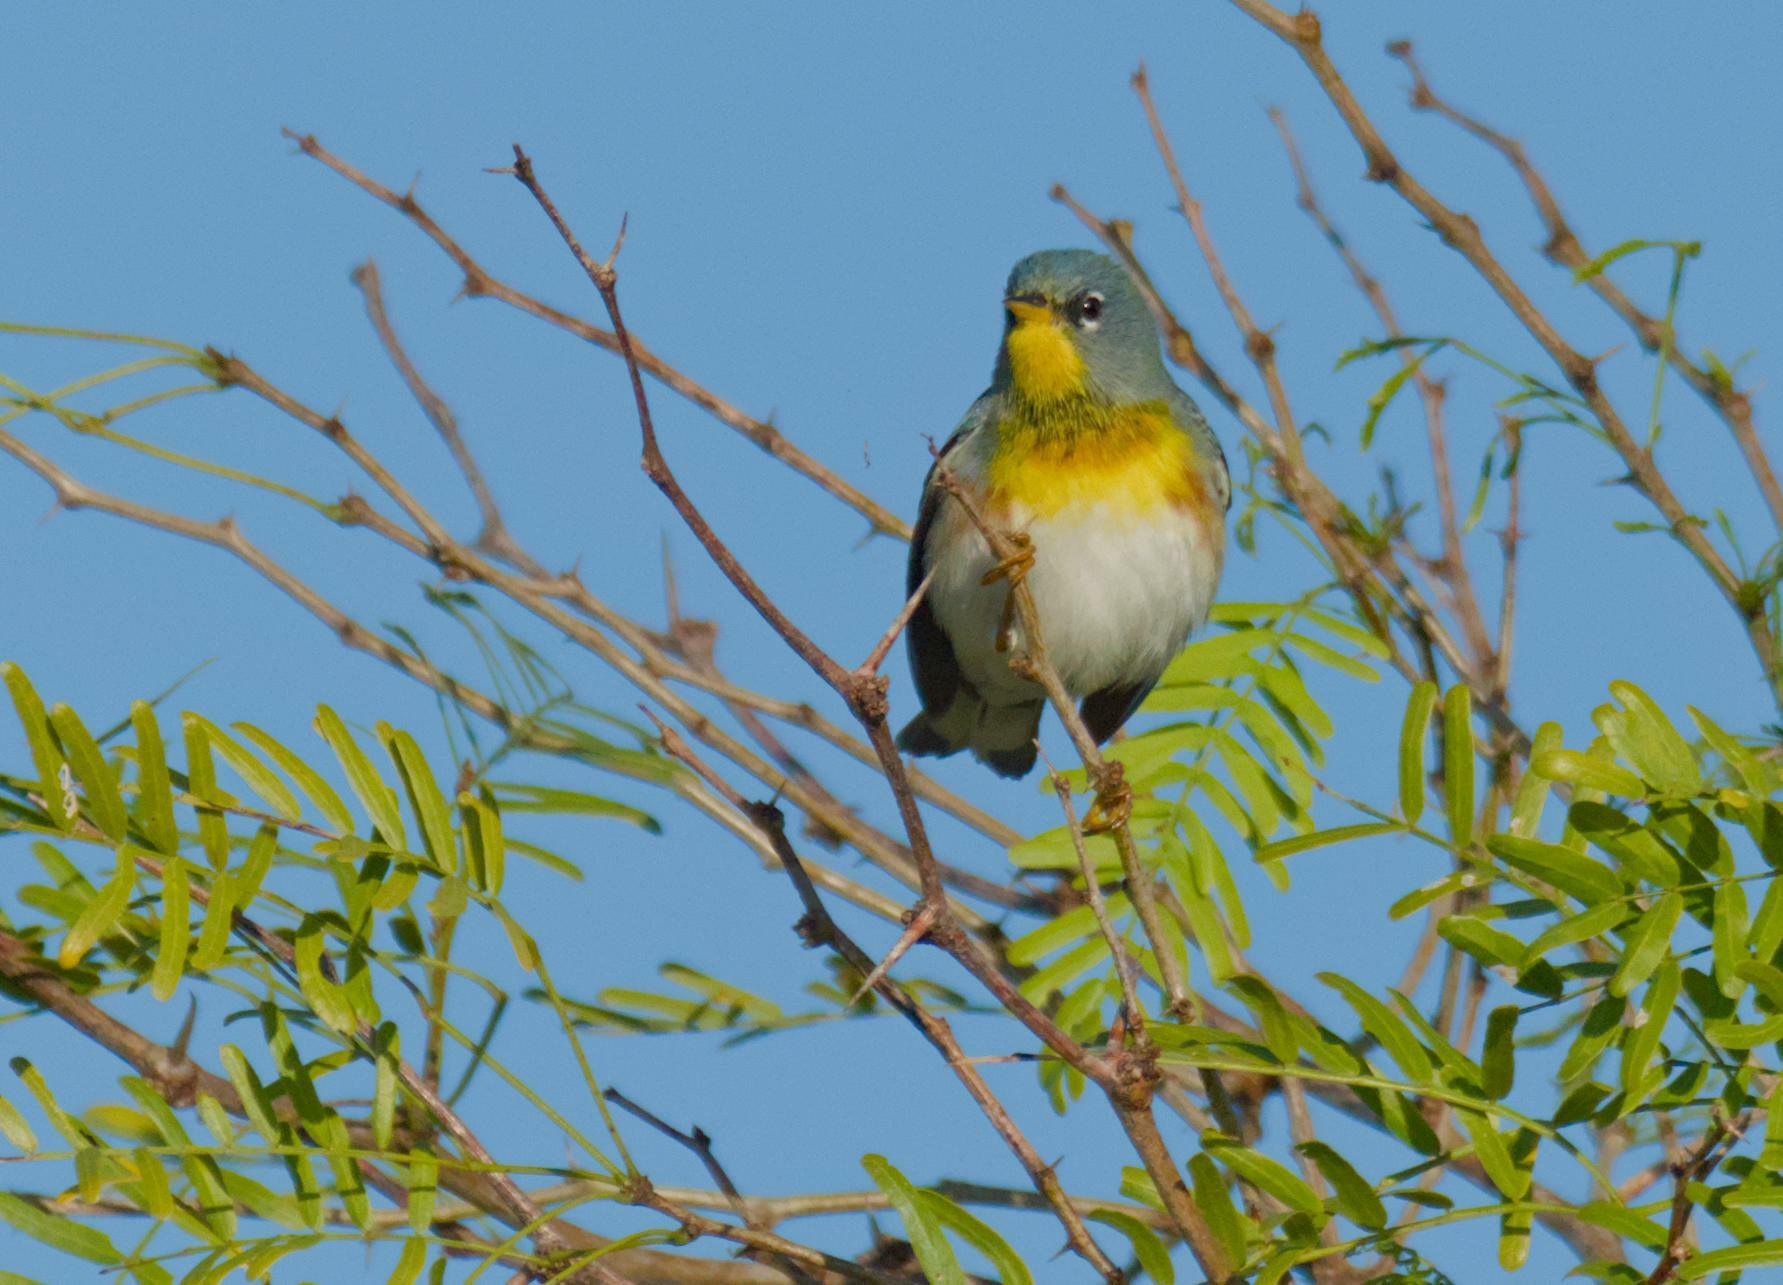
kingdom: Animalia
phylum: Chordata
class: Aves
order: Passeriformes
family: Parulidae
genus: Setophaga
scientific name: Setophaga americana
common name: Northern parula
